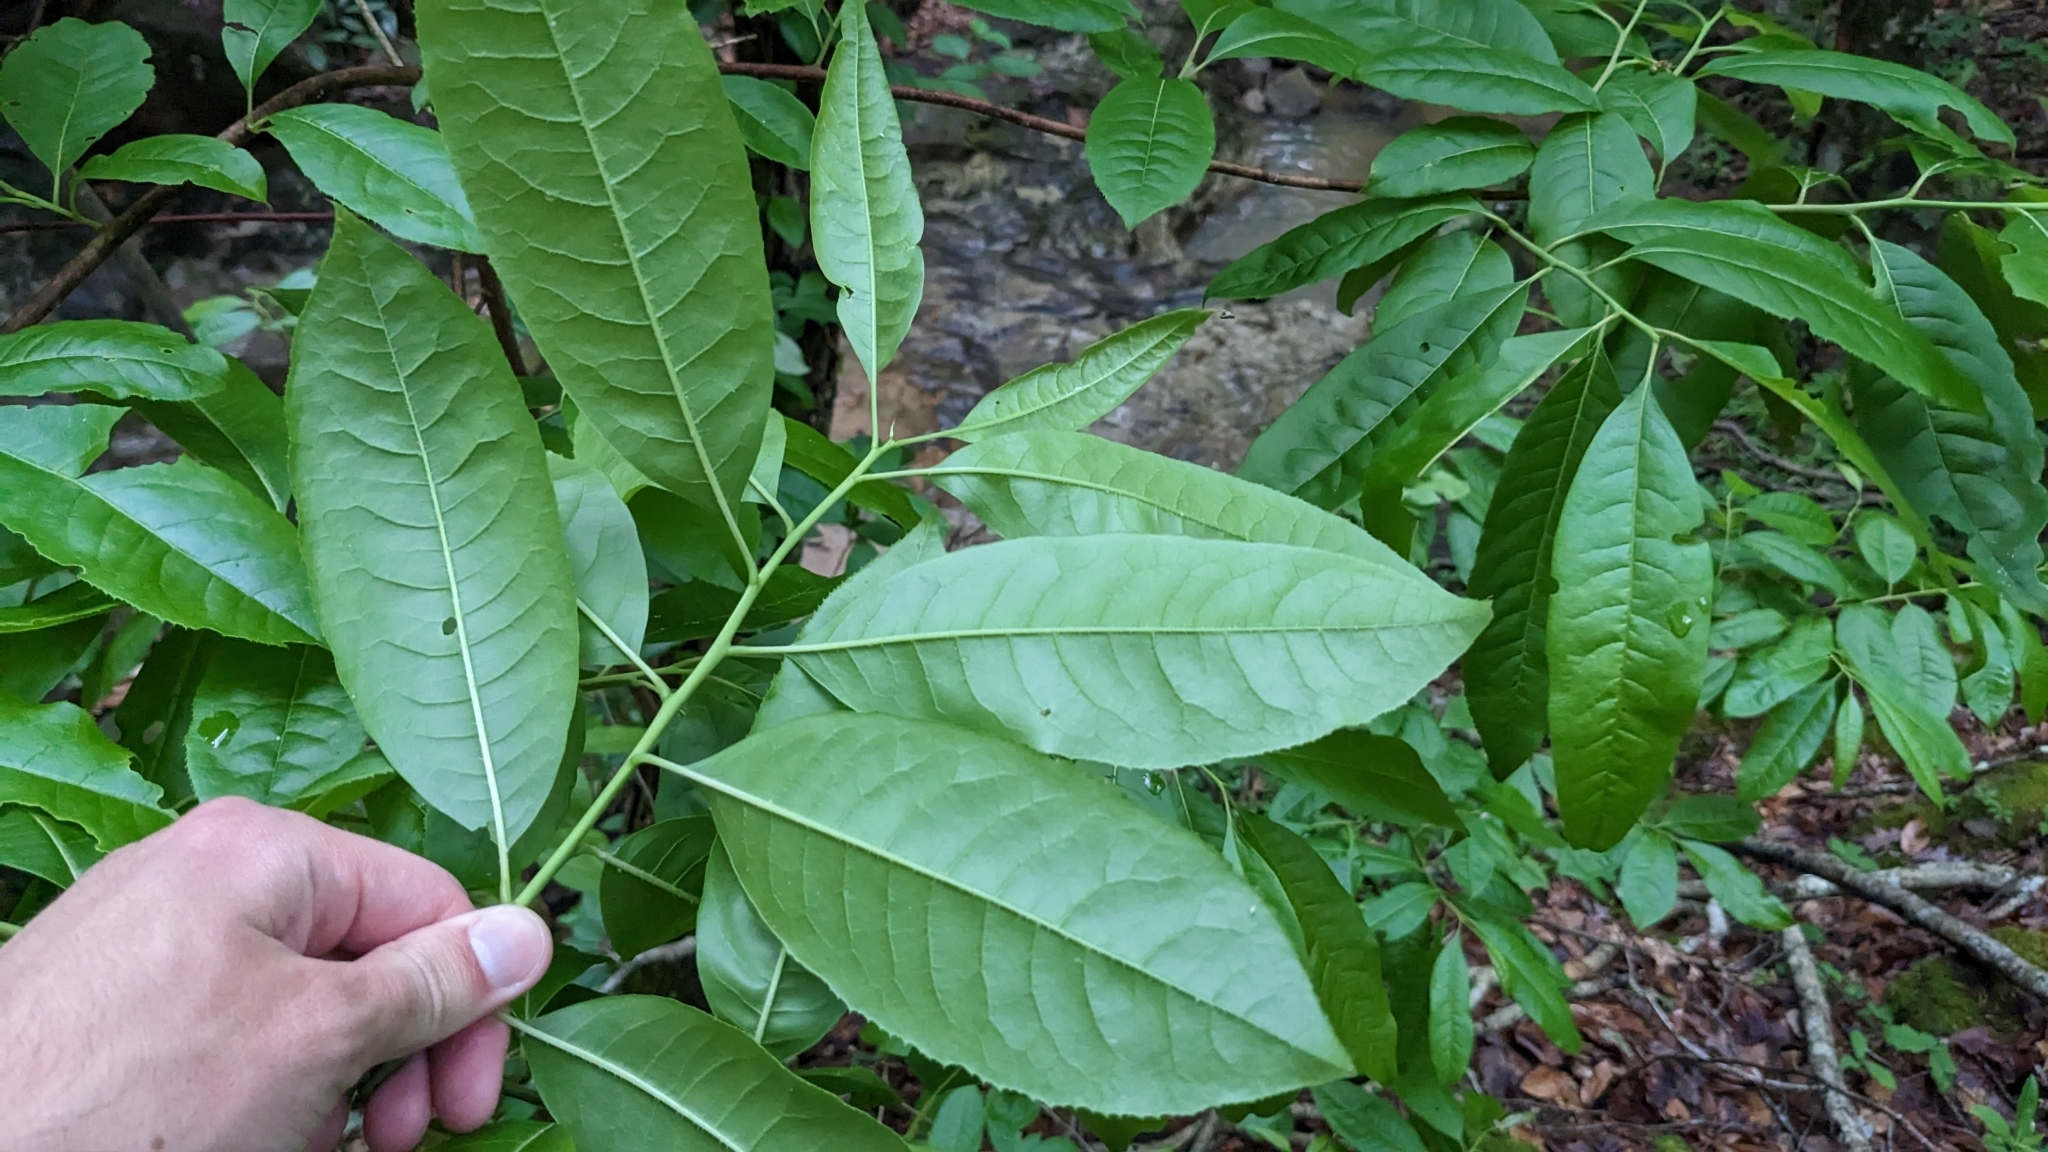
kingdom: Plantae
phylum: Tracheophyta
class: Magnoliopsida
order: Ericales
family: Ericaceae
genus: Oxydendrum
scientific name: Oxydendrum arboreum
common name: Sourwood
